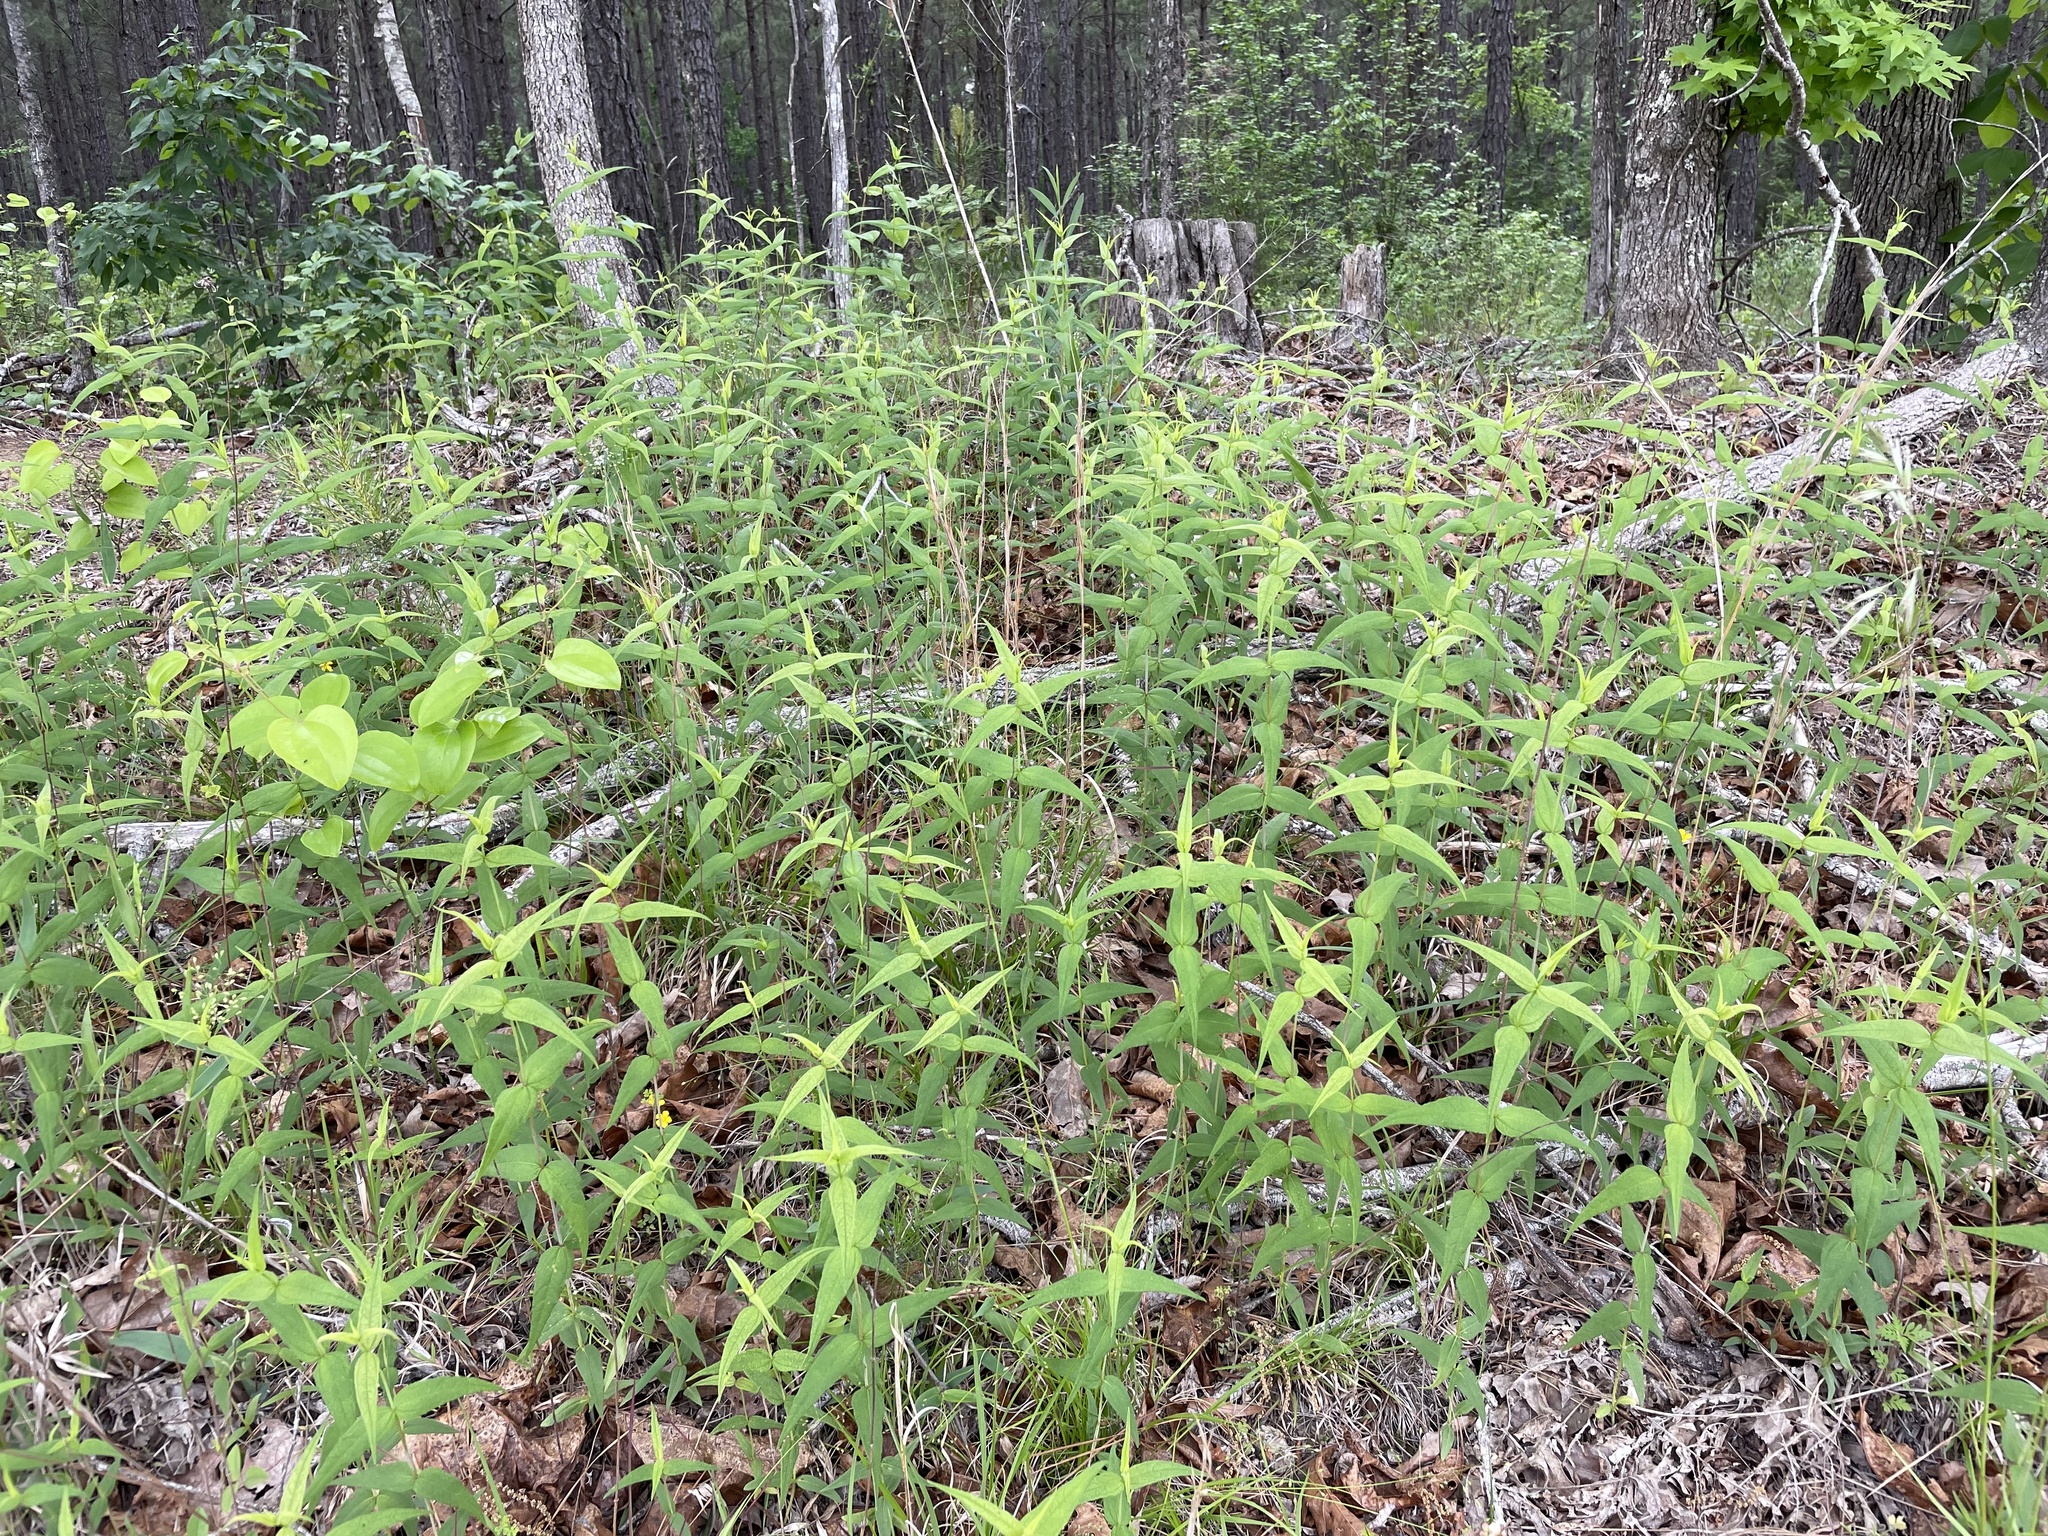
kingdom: Plantae
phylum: Tracheophyta
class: Magnoliopsida
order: Asterales
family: Asteraceae
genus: Helianthus
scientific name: Helianthus divaricatus
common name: Divergent sunflower
